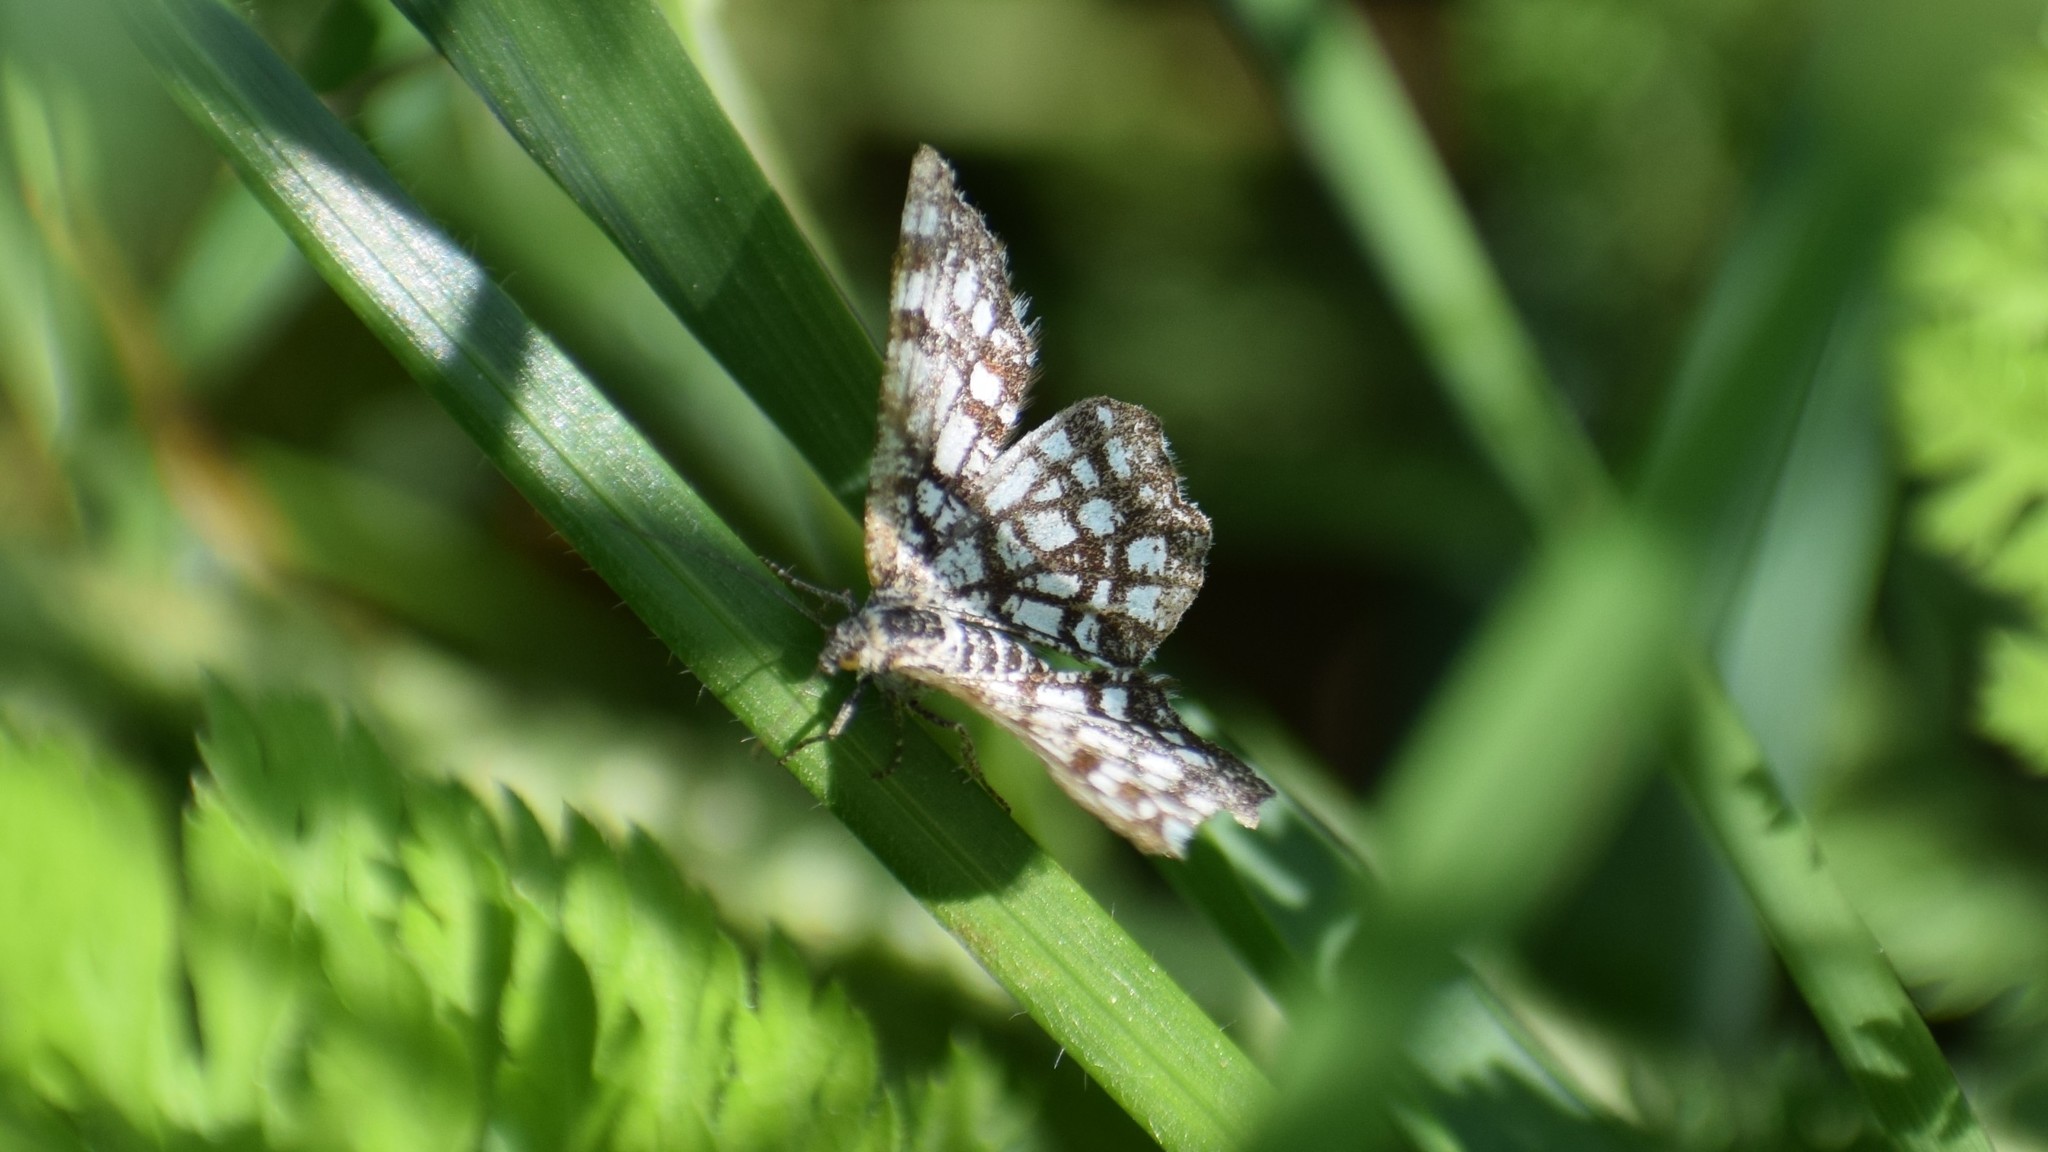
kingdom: Animalia
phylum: Arthropoda
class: Insecta
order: Lepidoptera
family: Geometridae
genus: Chiasmia
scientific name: Chiasmia clathrata
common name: Latticed heath
